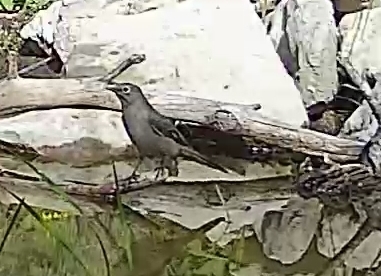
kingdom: Animalia
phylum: Chordata
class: Aves
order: Passeriformes
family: Turdidae
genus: Myadestes
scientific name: Myadestes townsendi
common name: Townsend's solitaire
